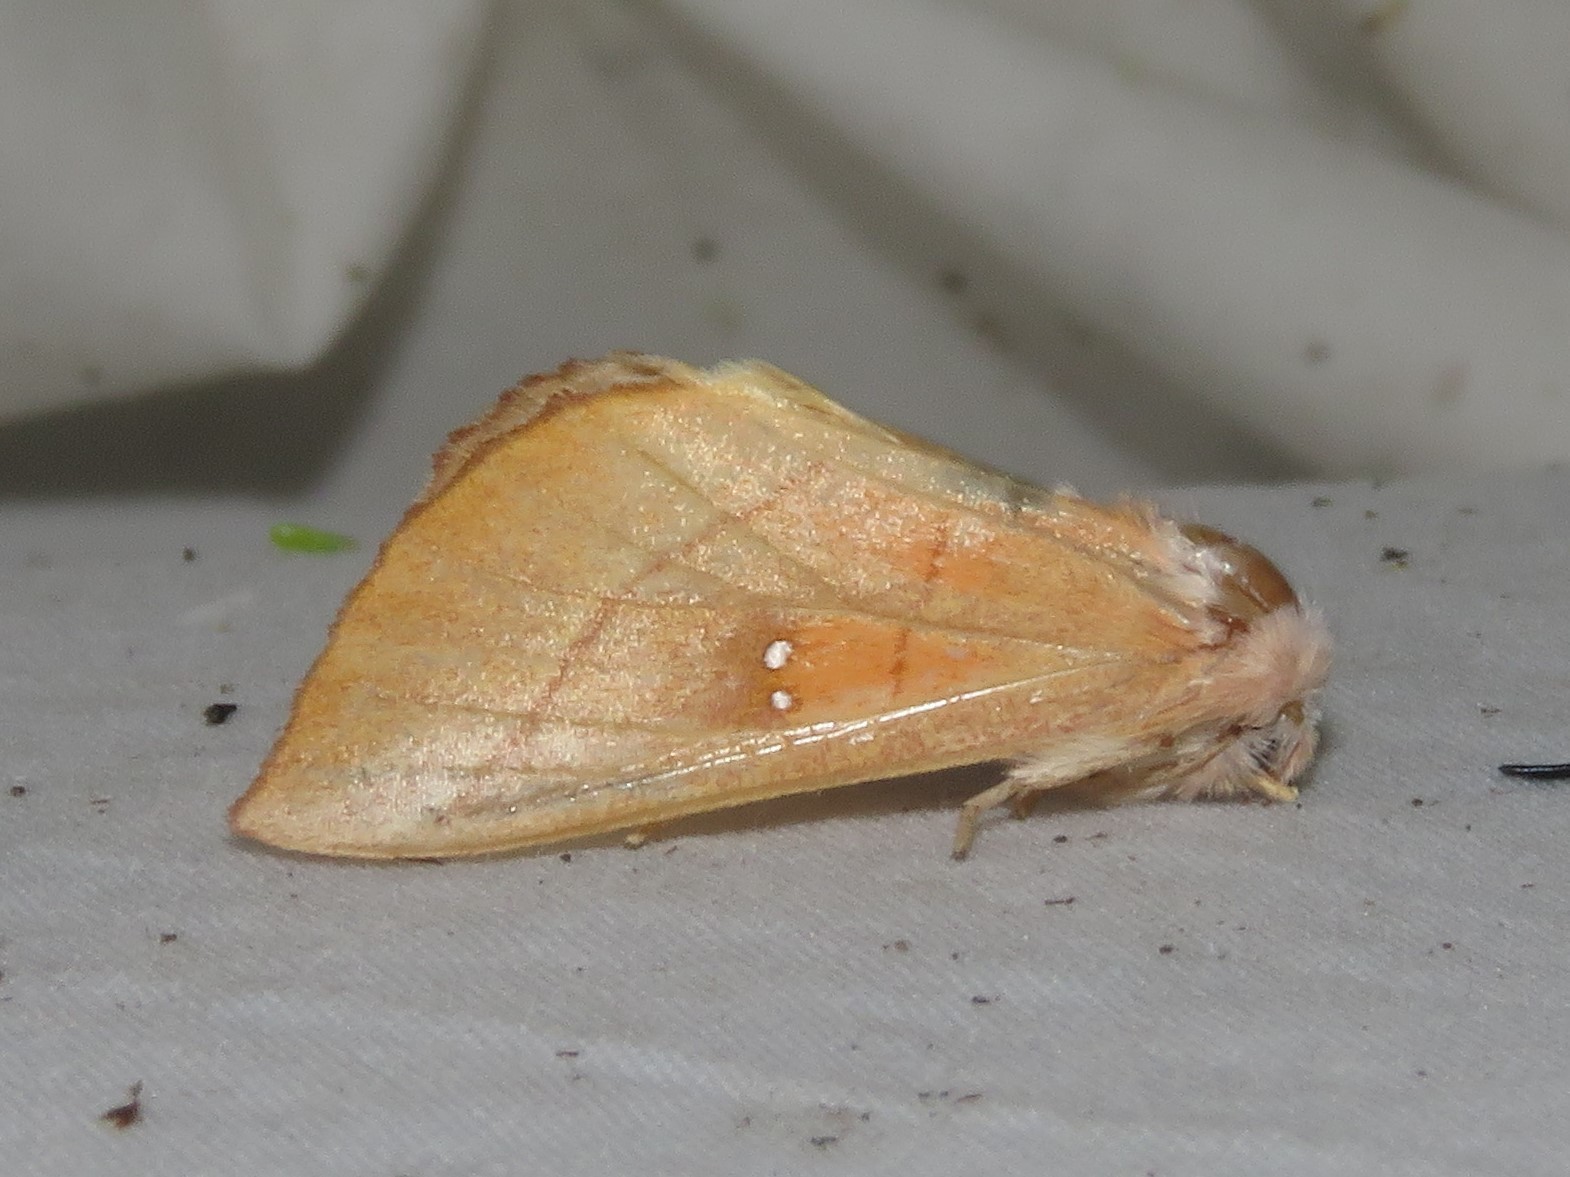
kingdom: Animalia
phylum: Arthropoda
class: Insecta
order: Lepidoptera
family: Notodontidae
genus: Nadata
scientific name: Nadata gibbosa
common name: White-dotted prominent
